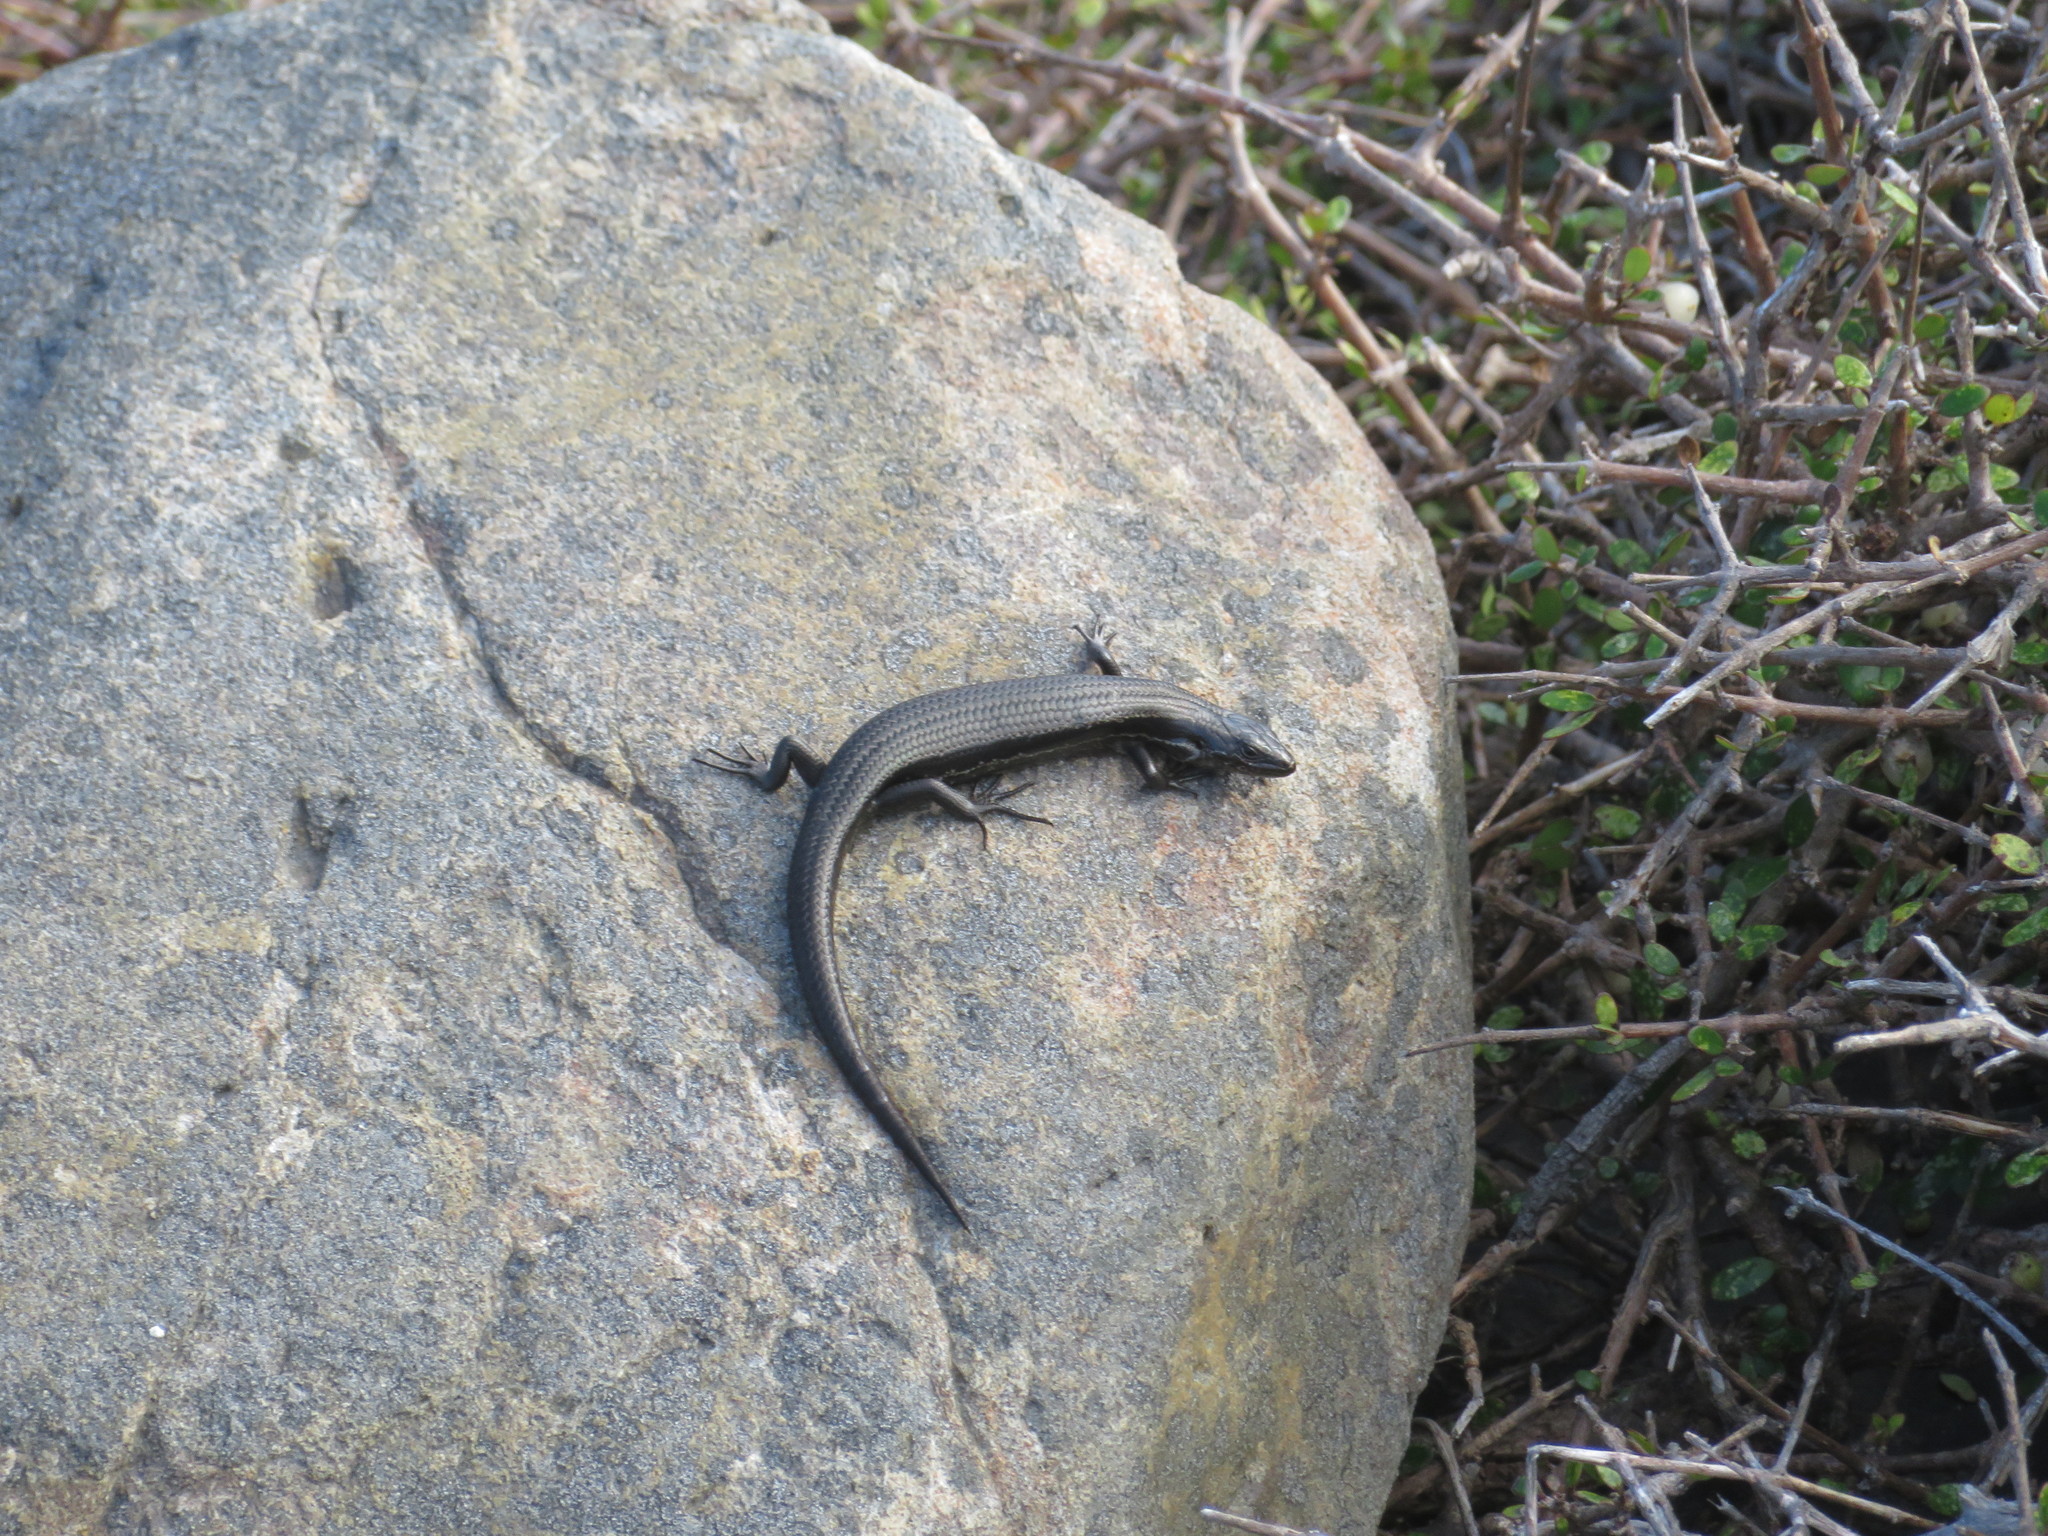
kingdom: Animalia
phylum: Chordata
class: Squamata
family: Scincidae
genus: Oligosoma
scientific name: Oligosoma polychroma
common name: Common new zealand skink
